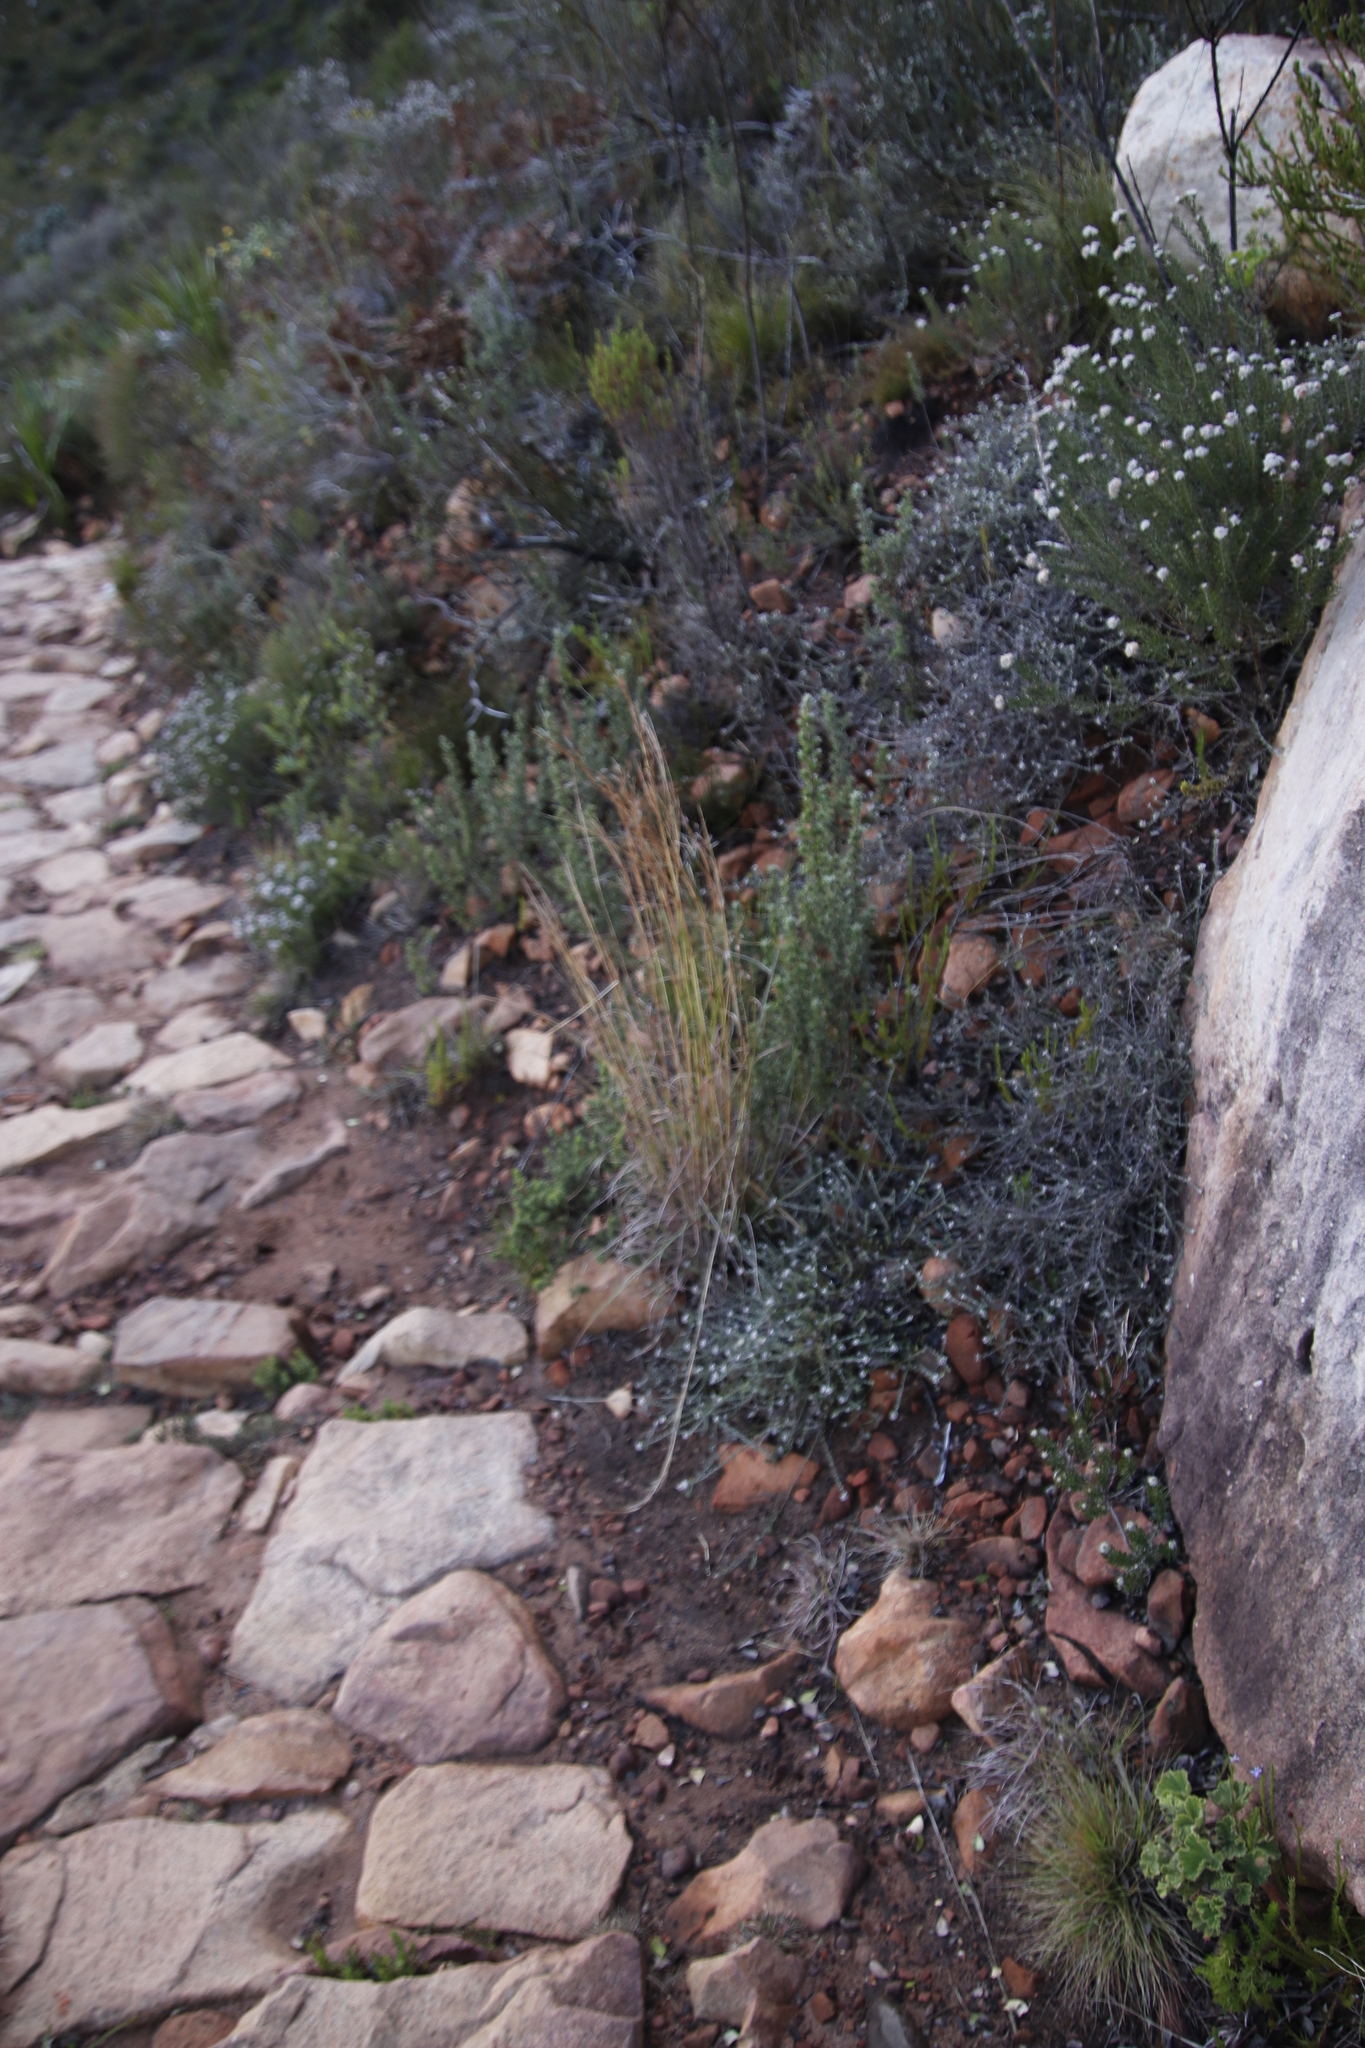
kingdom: Plantae
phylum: Tracheophyta
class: Liliopsida
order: Poales
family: Cyperaceae
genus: Tetraria
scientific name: Tetraria ustulata
